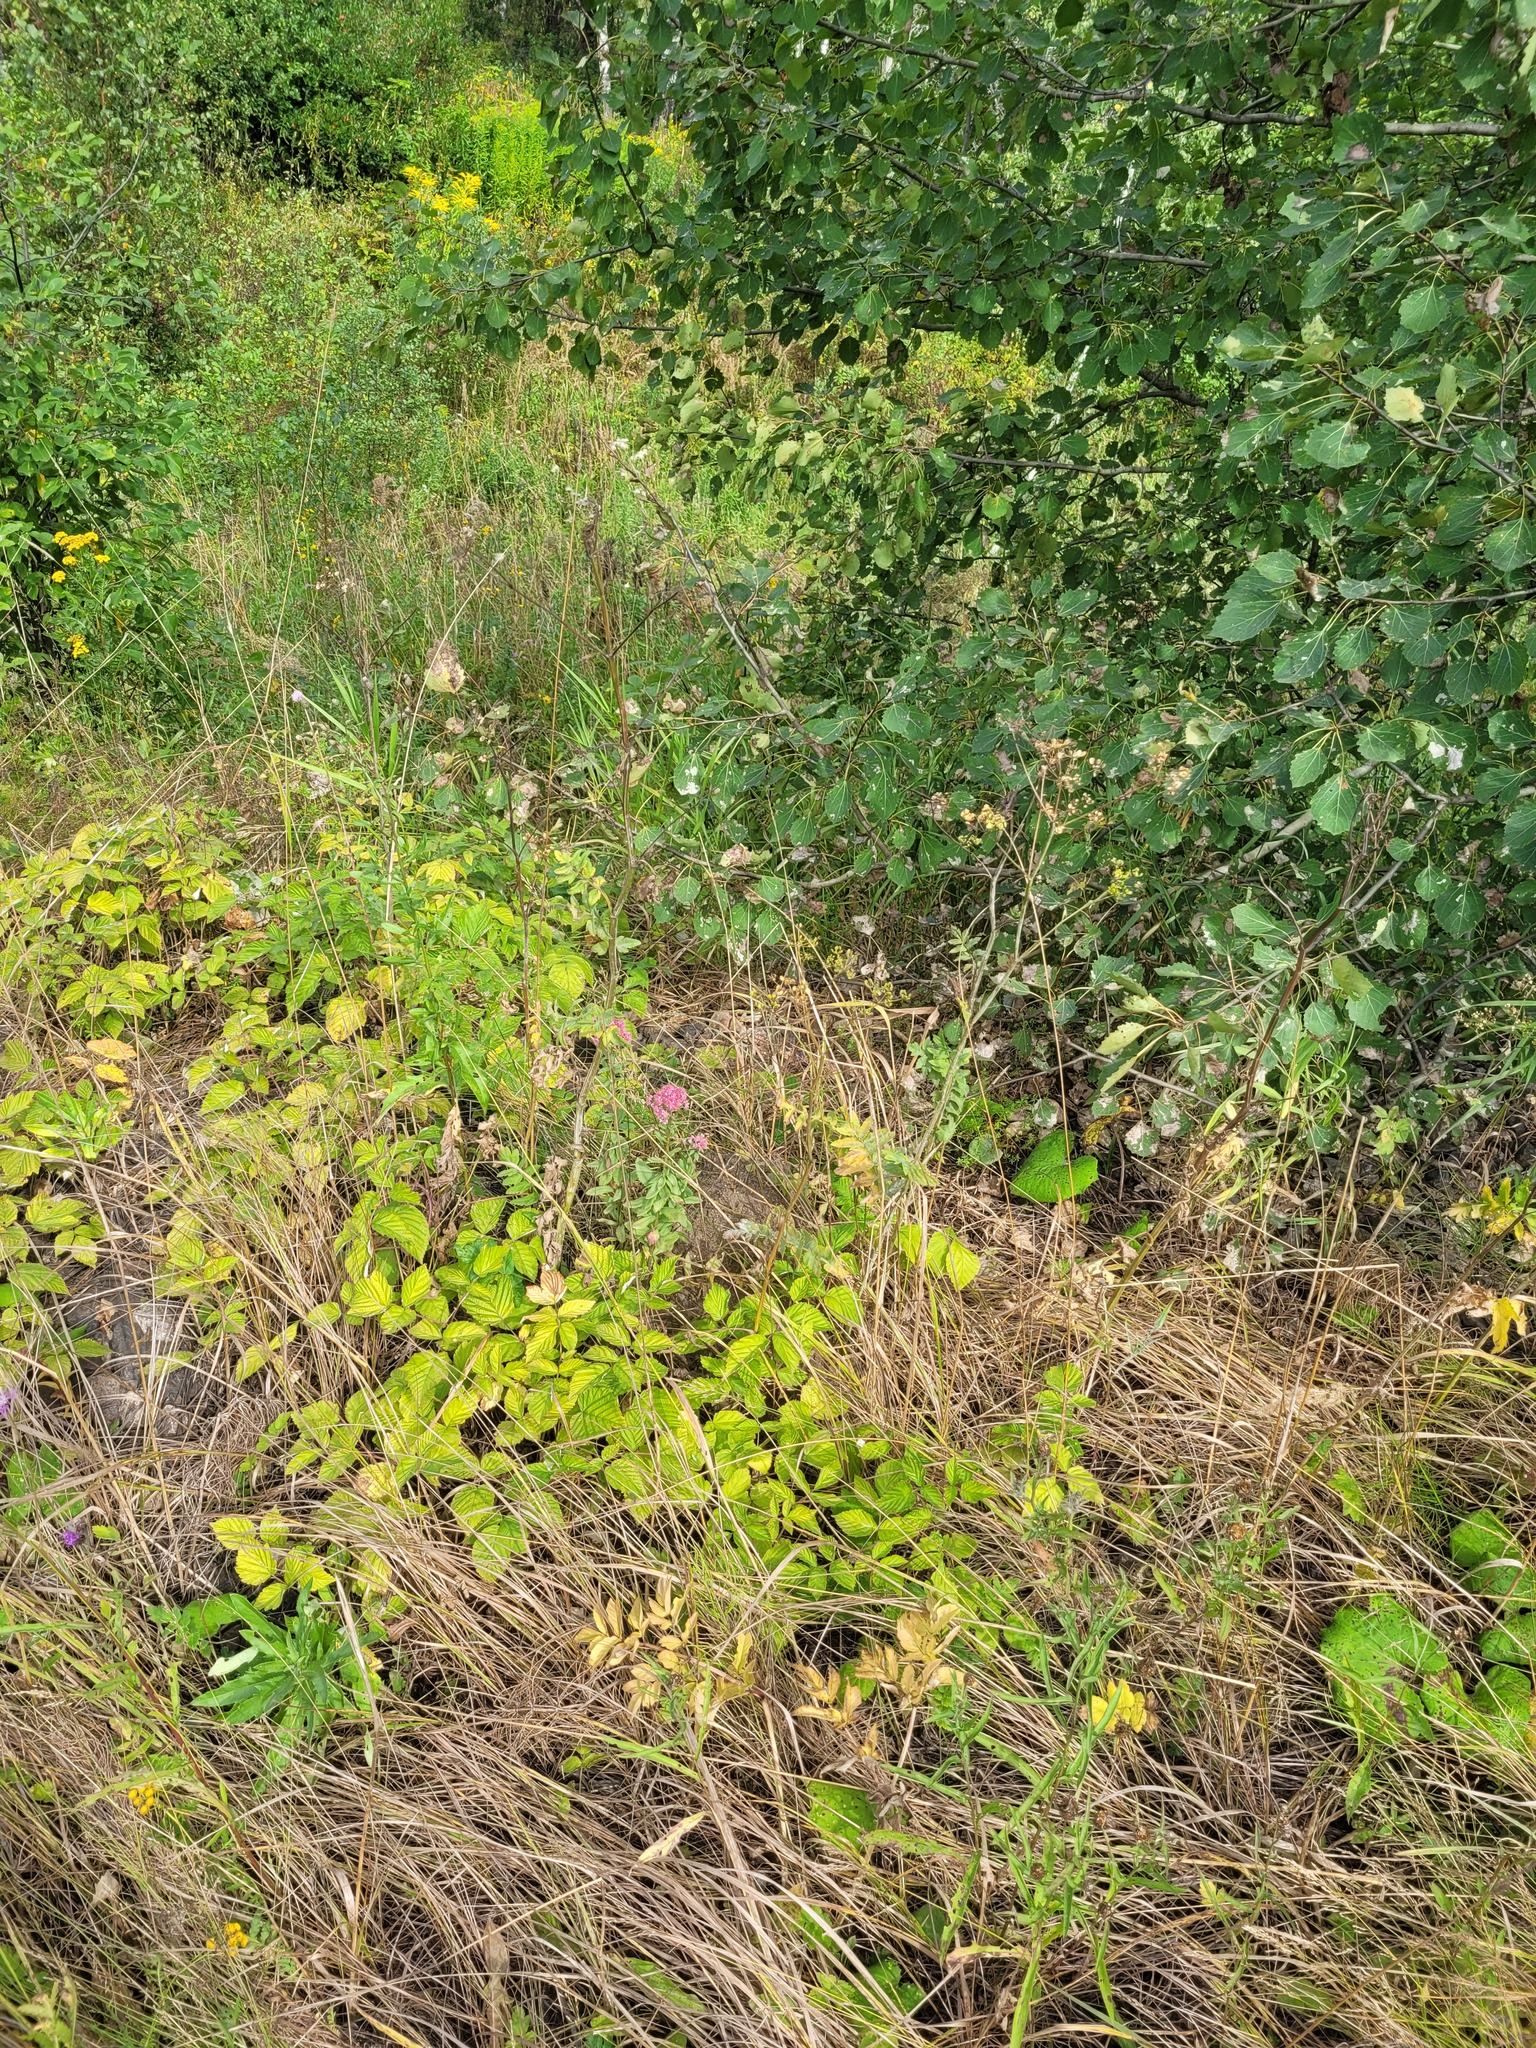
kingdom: Plantae
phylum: Tracheophyta
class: Magnoliopsida
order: Saxifragales
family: Crassulaceae
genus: Hylotelephium
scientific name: Hylotelephium telephium
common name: Live-forever
